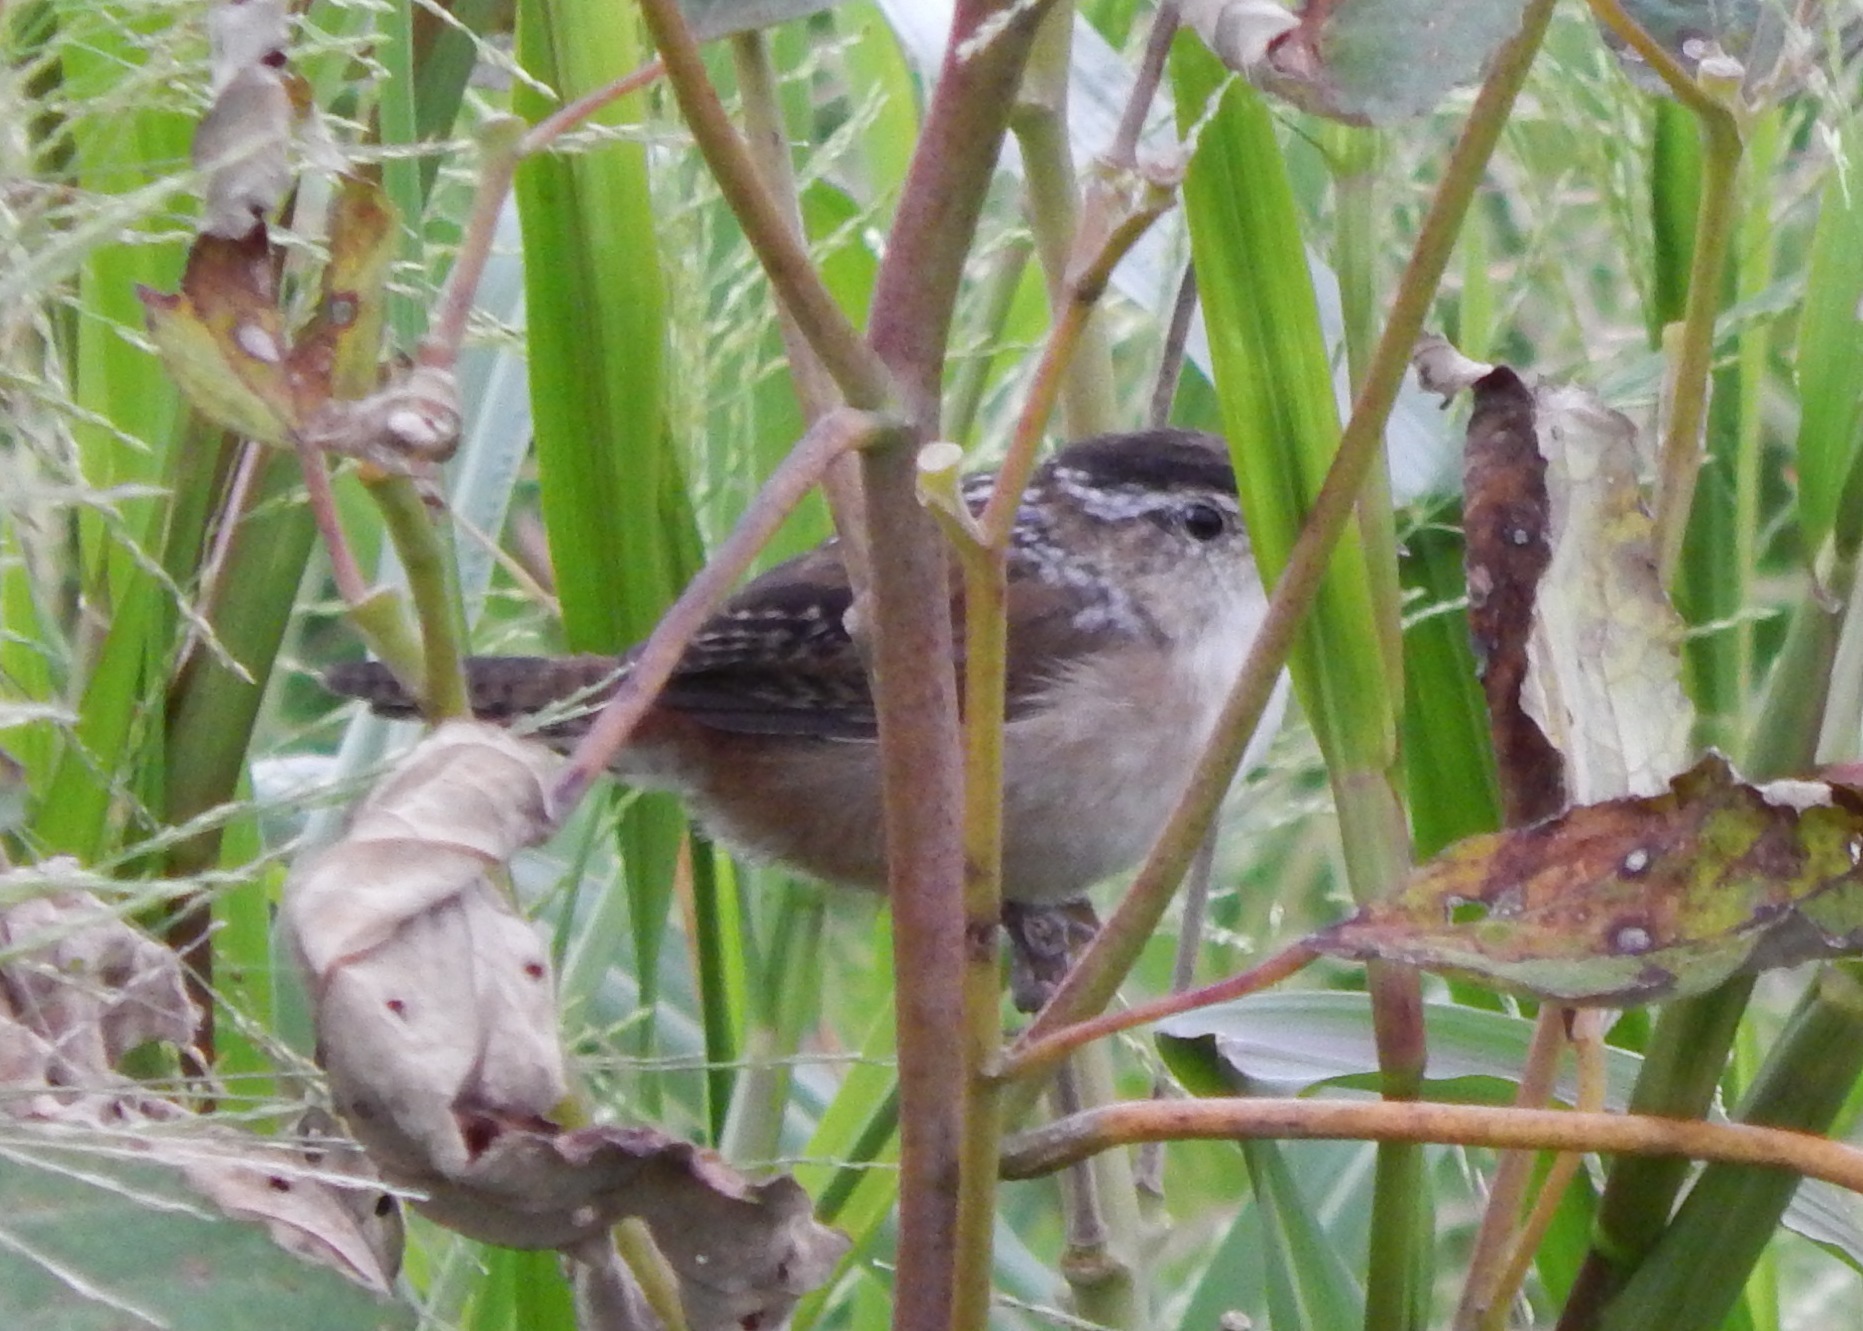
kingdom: Animalia
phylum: Chordata
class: Aves
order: Passeriformes
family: Troglodytidae
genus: Cistothorus
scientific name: Cistothorus palustris
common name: Marsh wren
